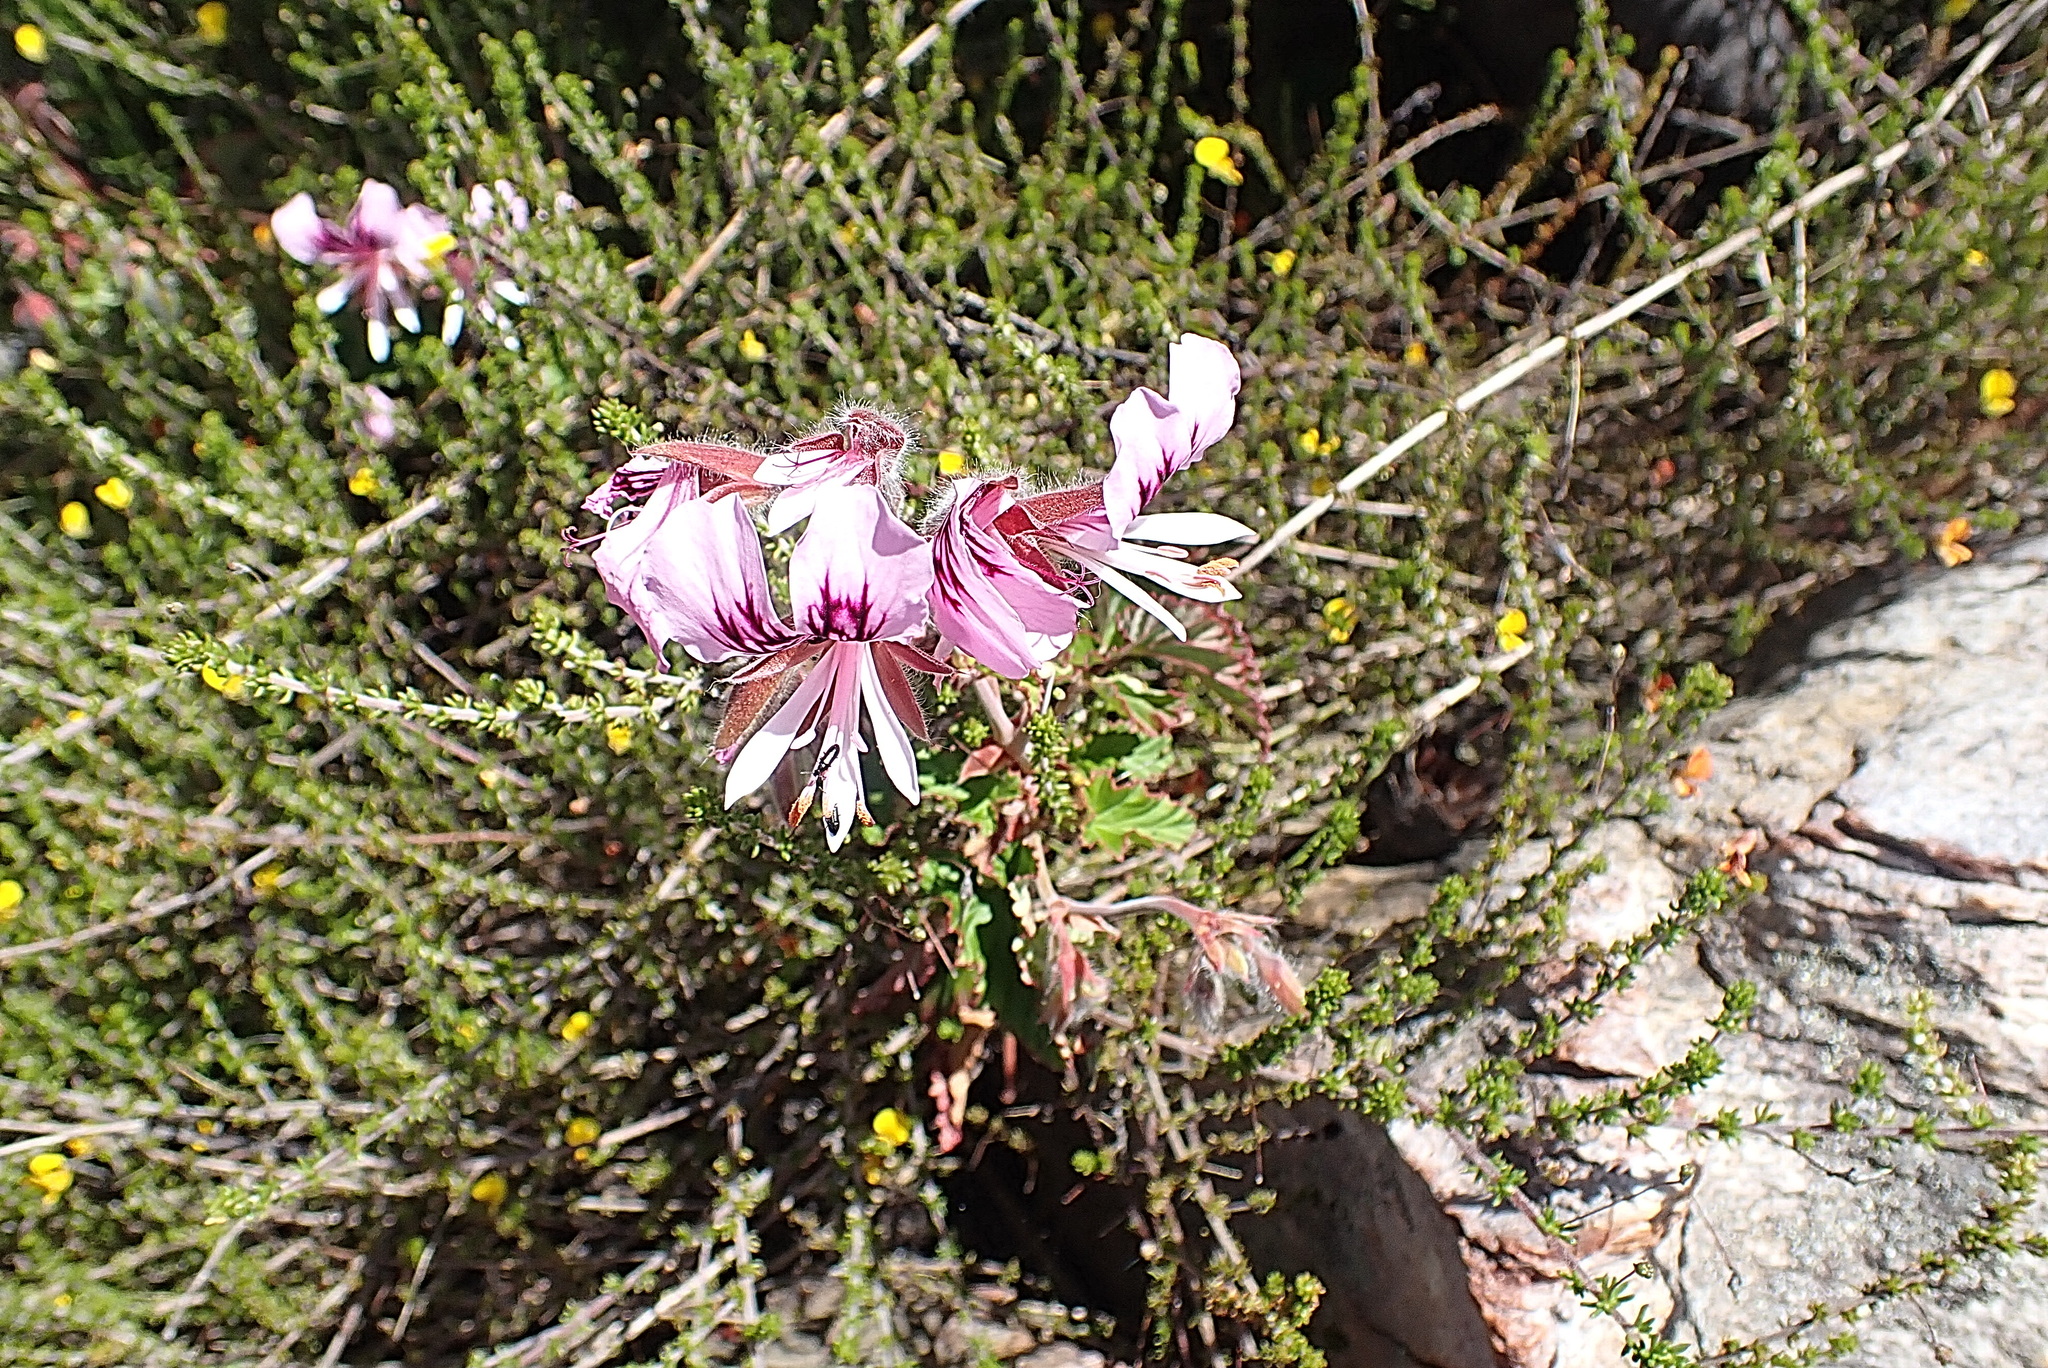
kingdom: Plantae
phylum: Tracheophyta
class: Magnoliopsida
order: Geraniales
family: Geraniaceae
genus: Pelargonium
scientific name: Pelargonium cordifolium
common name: Heart-leaf pelargonium
